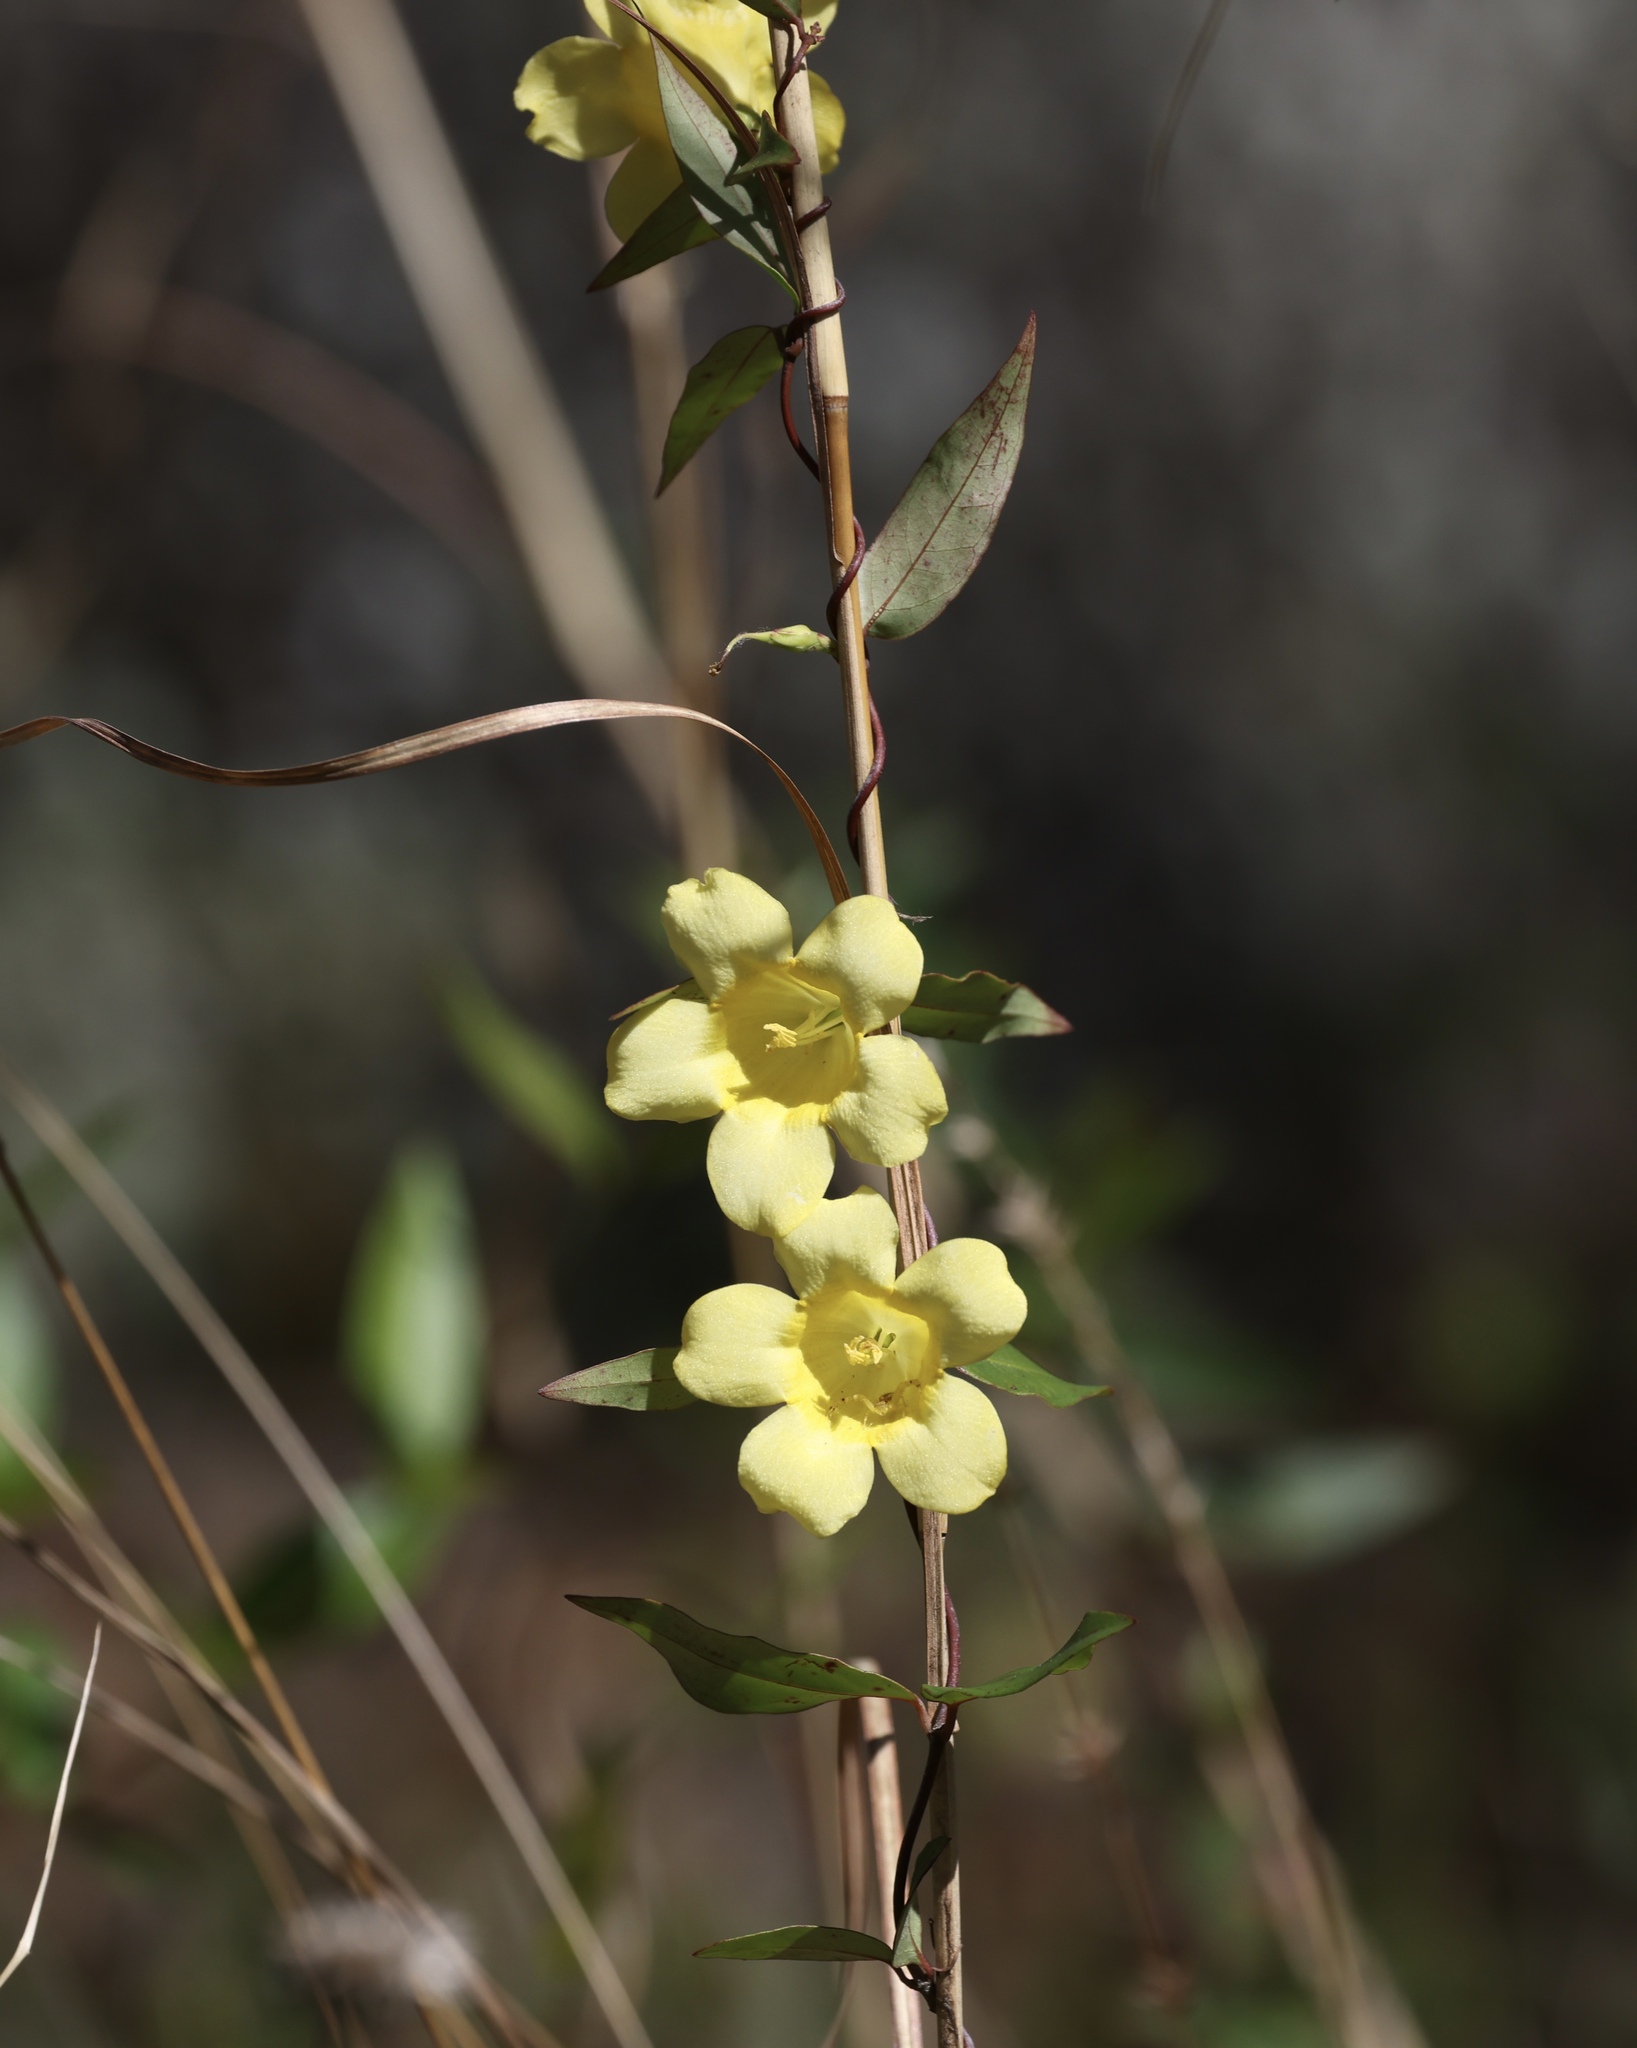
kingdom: Plantae
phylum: Tracheophyta
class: Magnoliopsida
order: Gentianales
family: Gelsemiaceae
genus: Gelsemium
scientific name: Gelsemium sempervirens
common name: Carolina-jasmine
